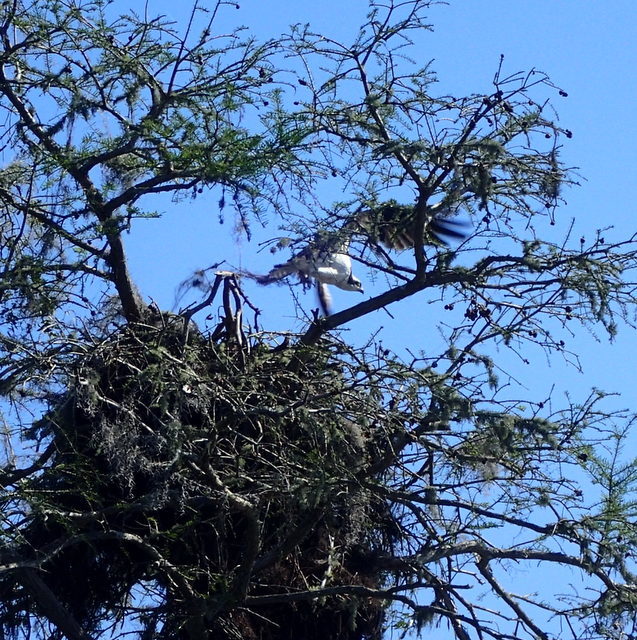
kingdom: Animalia
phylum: Chordata
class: Aves
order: Accipitriformes
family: Pandionidae
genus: Pandion
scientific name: Pandion haliaetus
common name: Osprey
